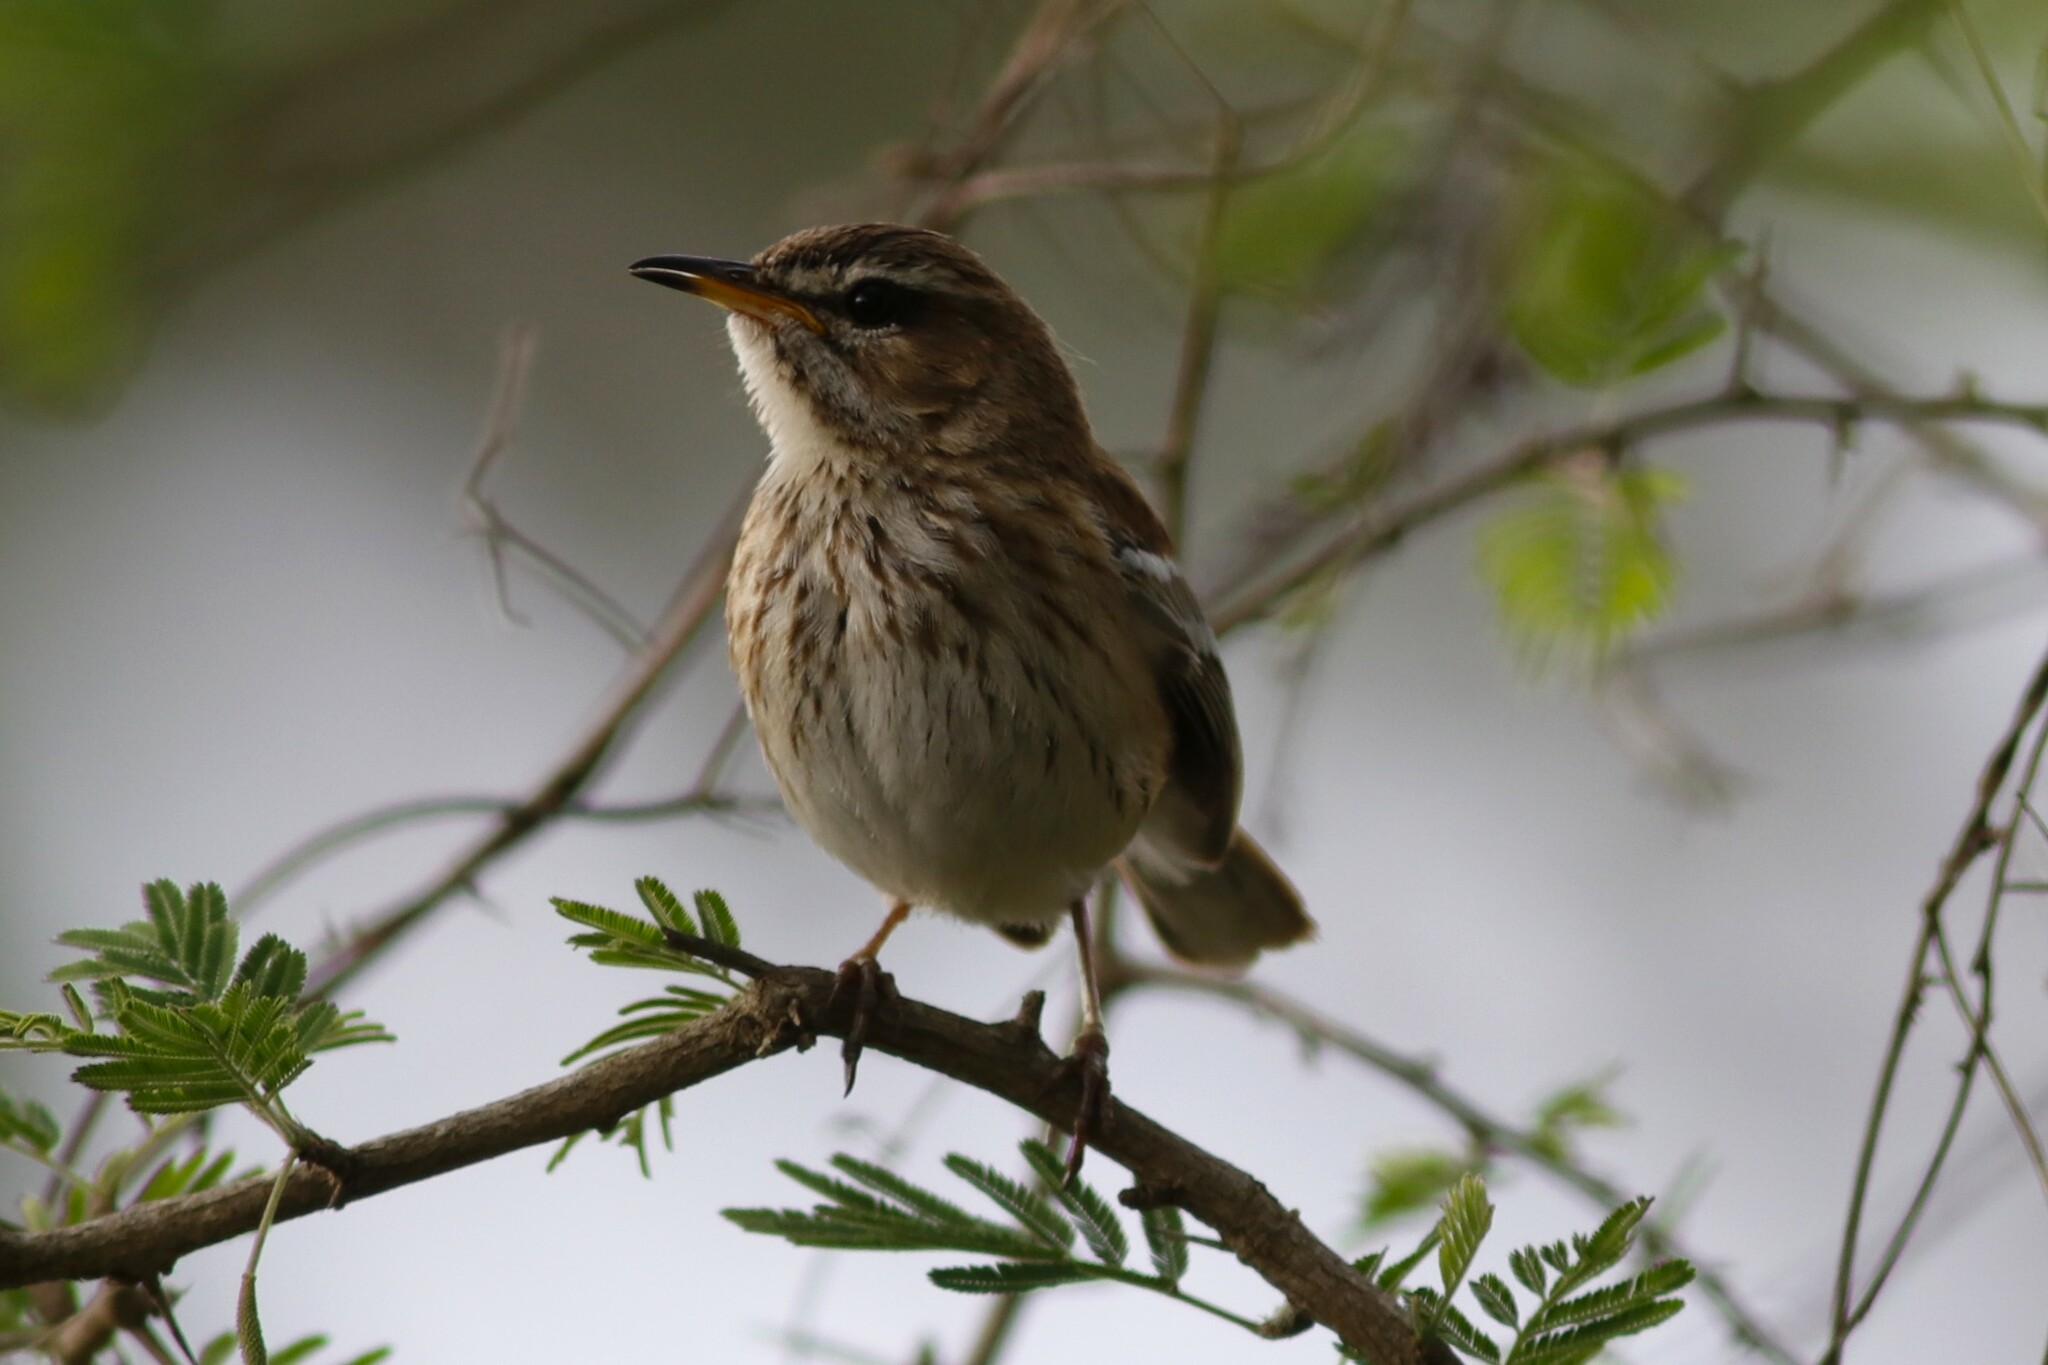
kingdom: Animalia
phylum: Chordata
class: Aves
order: Passeriformes
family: Muscicapidae
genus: Erythropygia
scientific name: Erythropygia leucophrys
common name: White-browed scrub robin
